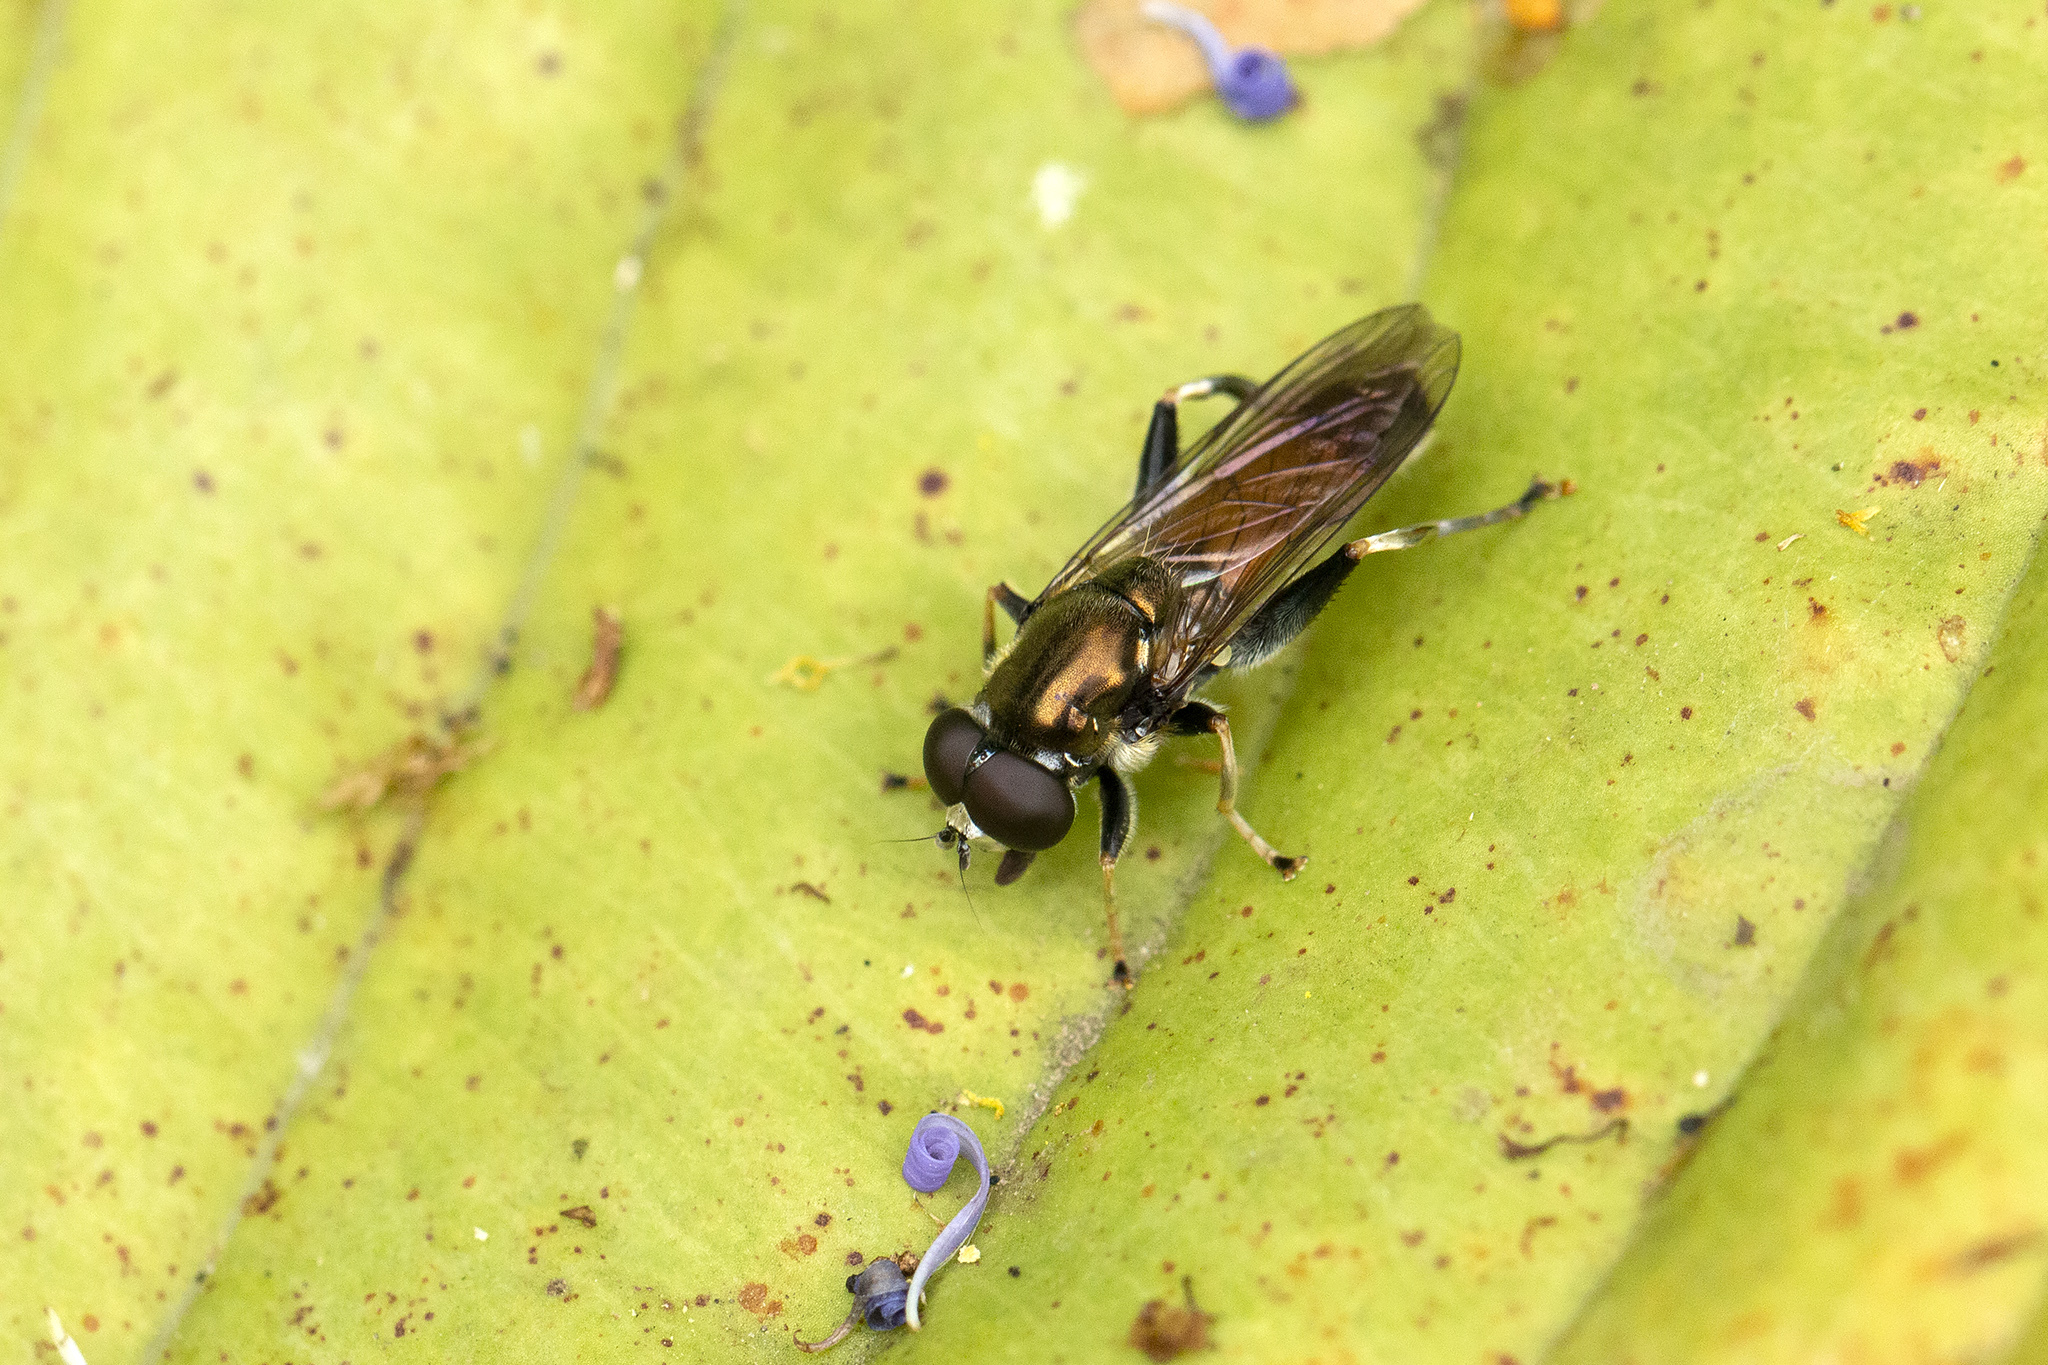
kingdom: Animalia
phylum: Arthropoda
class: Insecta
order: Diptera
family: Syrphidae
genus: Xylota
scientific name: Xylota segnis
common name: Brown-toed forest fly
